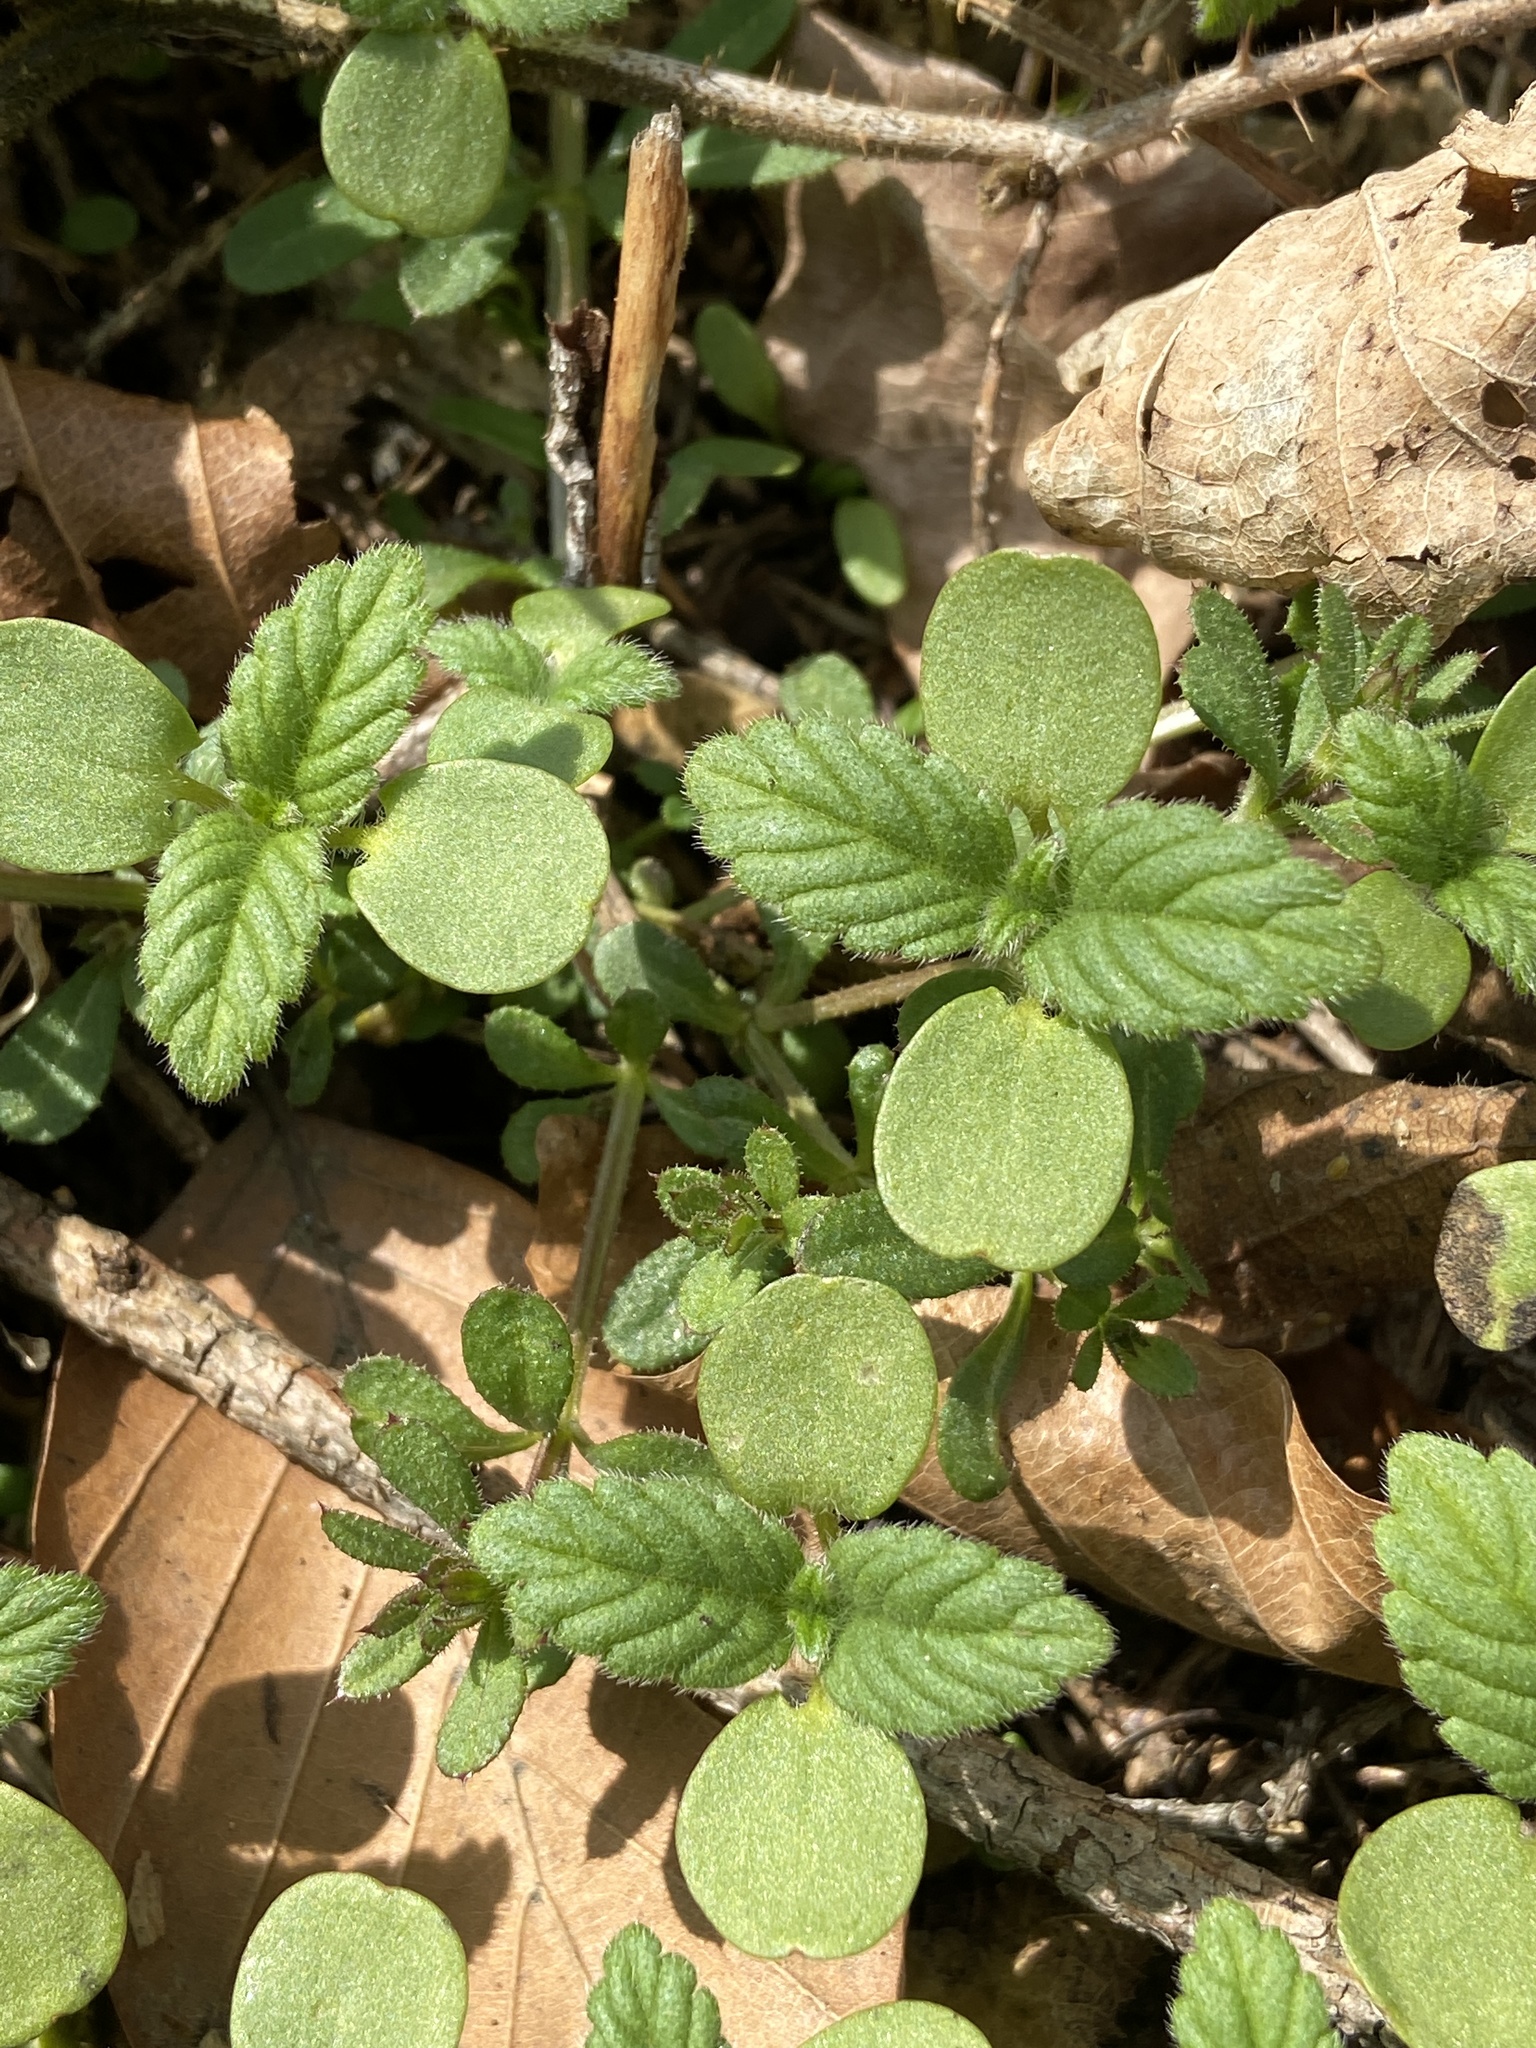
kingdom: Plantae
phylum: Tracheophyta
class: Magnoliopsida
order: Lamiales
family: Lamiaceae
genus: Galeopsis
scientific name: Galeopsis bifida
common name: Bifid hemp-nettle
